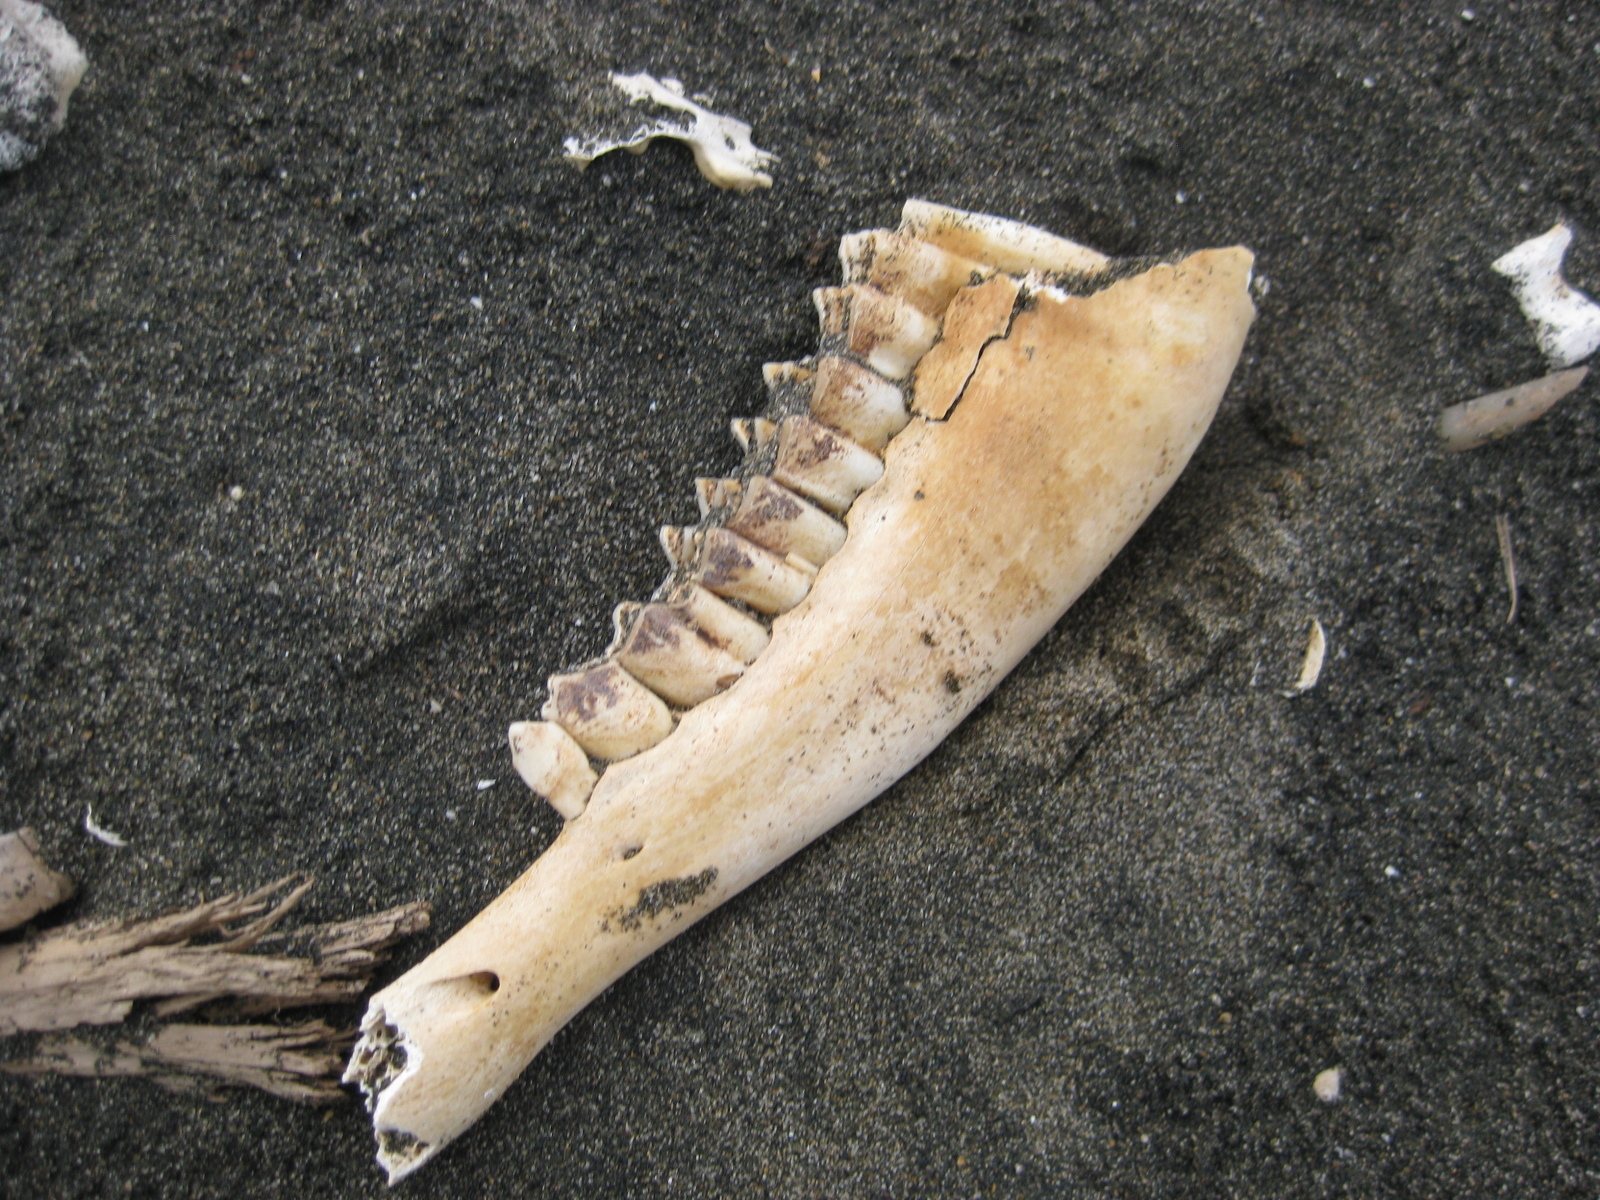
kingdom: Animalia
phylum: Chordata
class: Mammalia
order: Artiodactyla
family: Bovidae
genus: Ovis
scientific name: Ovis aries
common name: Domestic sheep
